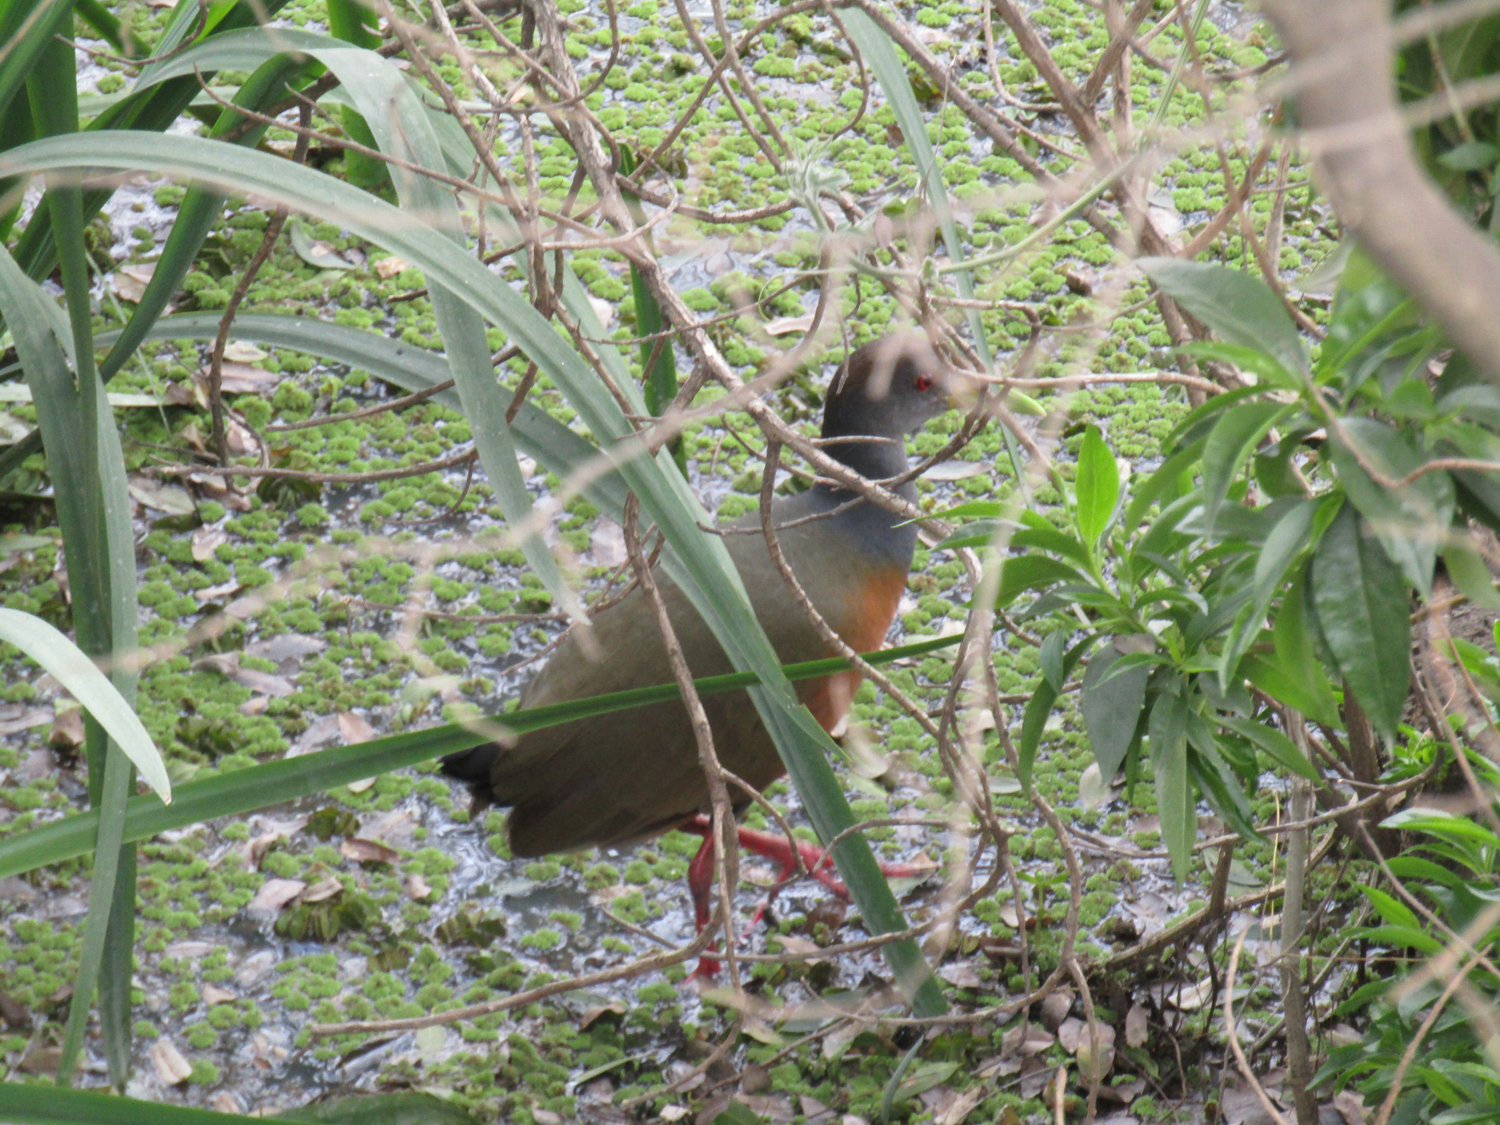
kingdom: Animalia
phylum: Chordata
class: Aves
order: Gruiformes
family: Rallidae
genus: Aramides
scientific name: Aramides cajanea
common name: Gray-necked wood-rail
